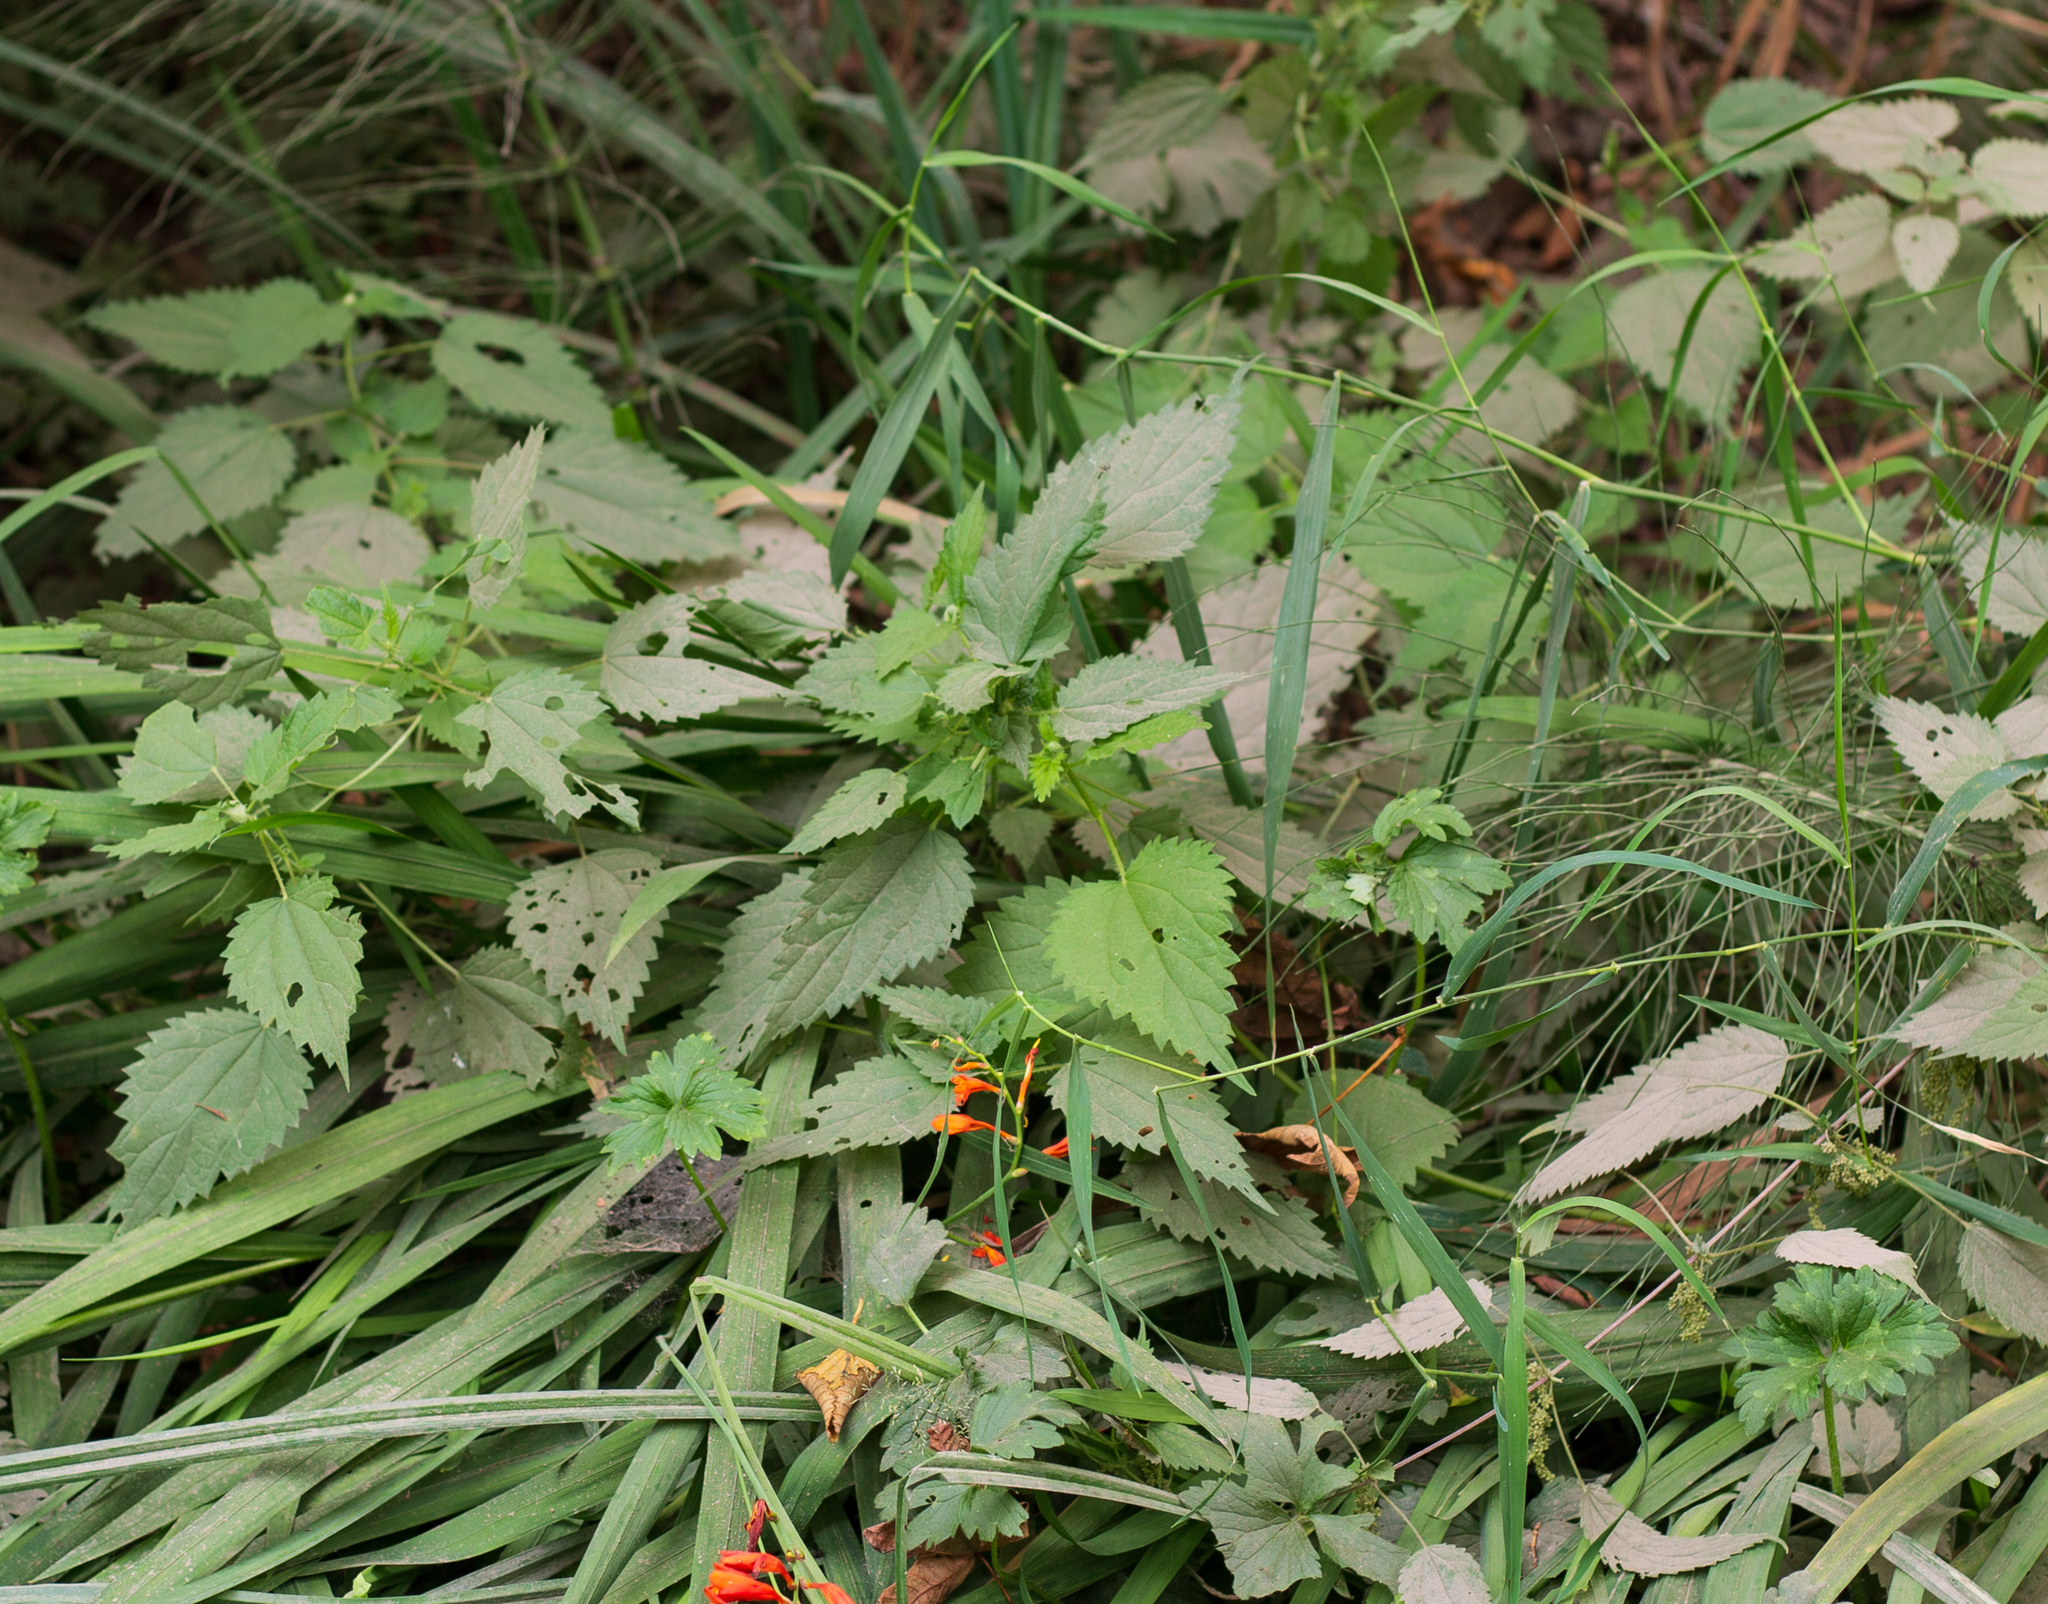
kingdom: Plantae
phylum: Tracheophyta
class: Magnoliopsida
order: Rosales
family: Urticaceae
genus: Urtica
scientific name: Urtica gracilis
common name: Slender stinging nettle
